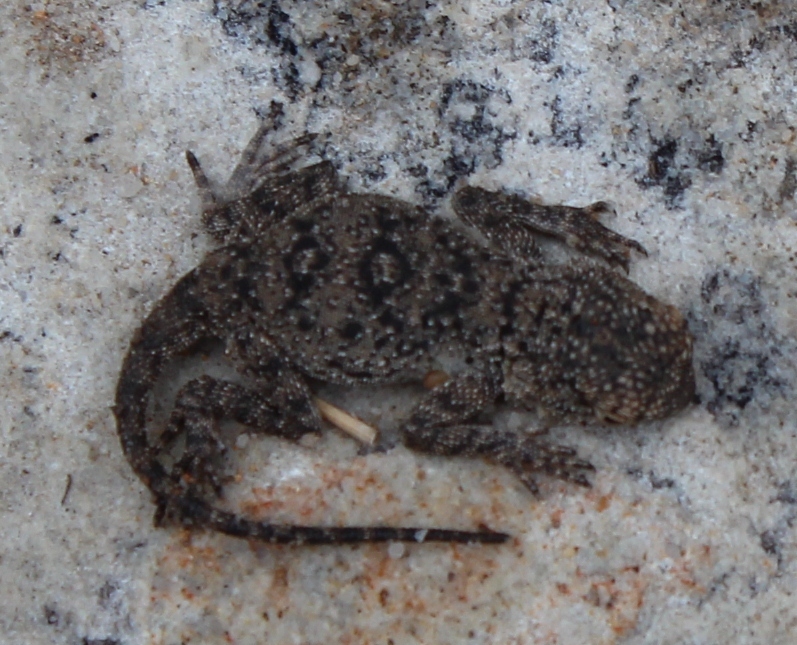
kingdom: Animalia
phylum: Chordata
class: Squamata
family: Agamidae
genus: Agama
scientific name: Agama atra
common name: Southern african rock agama
